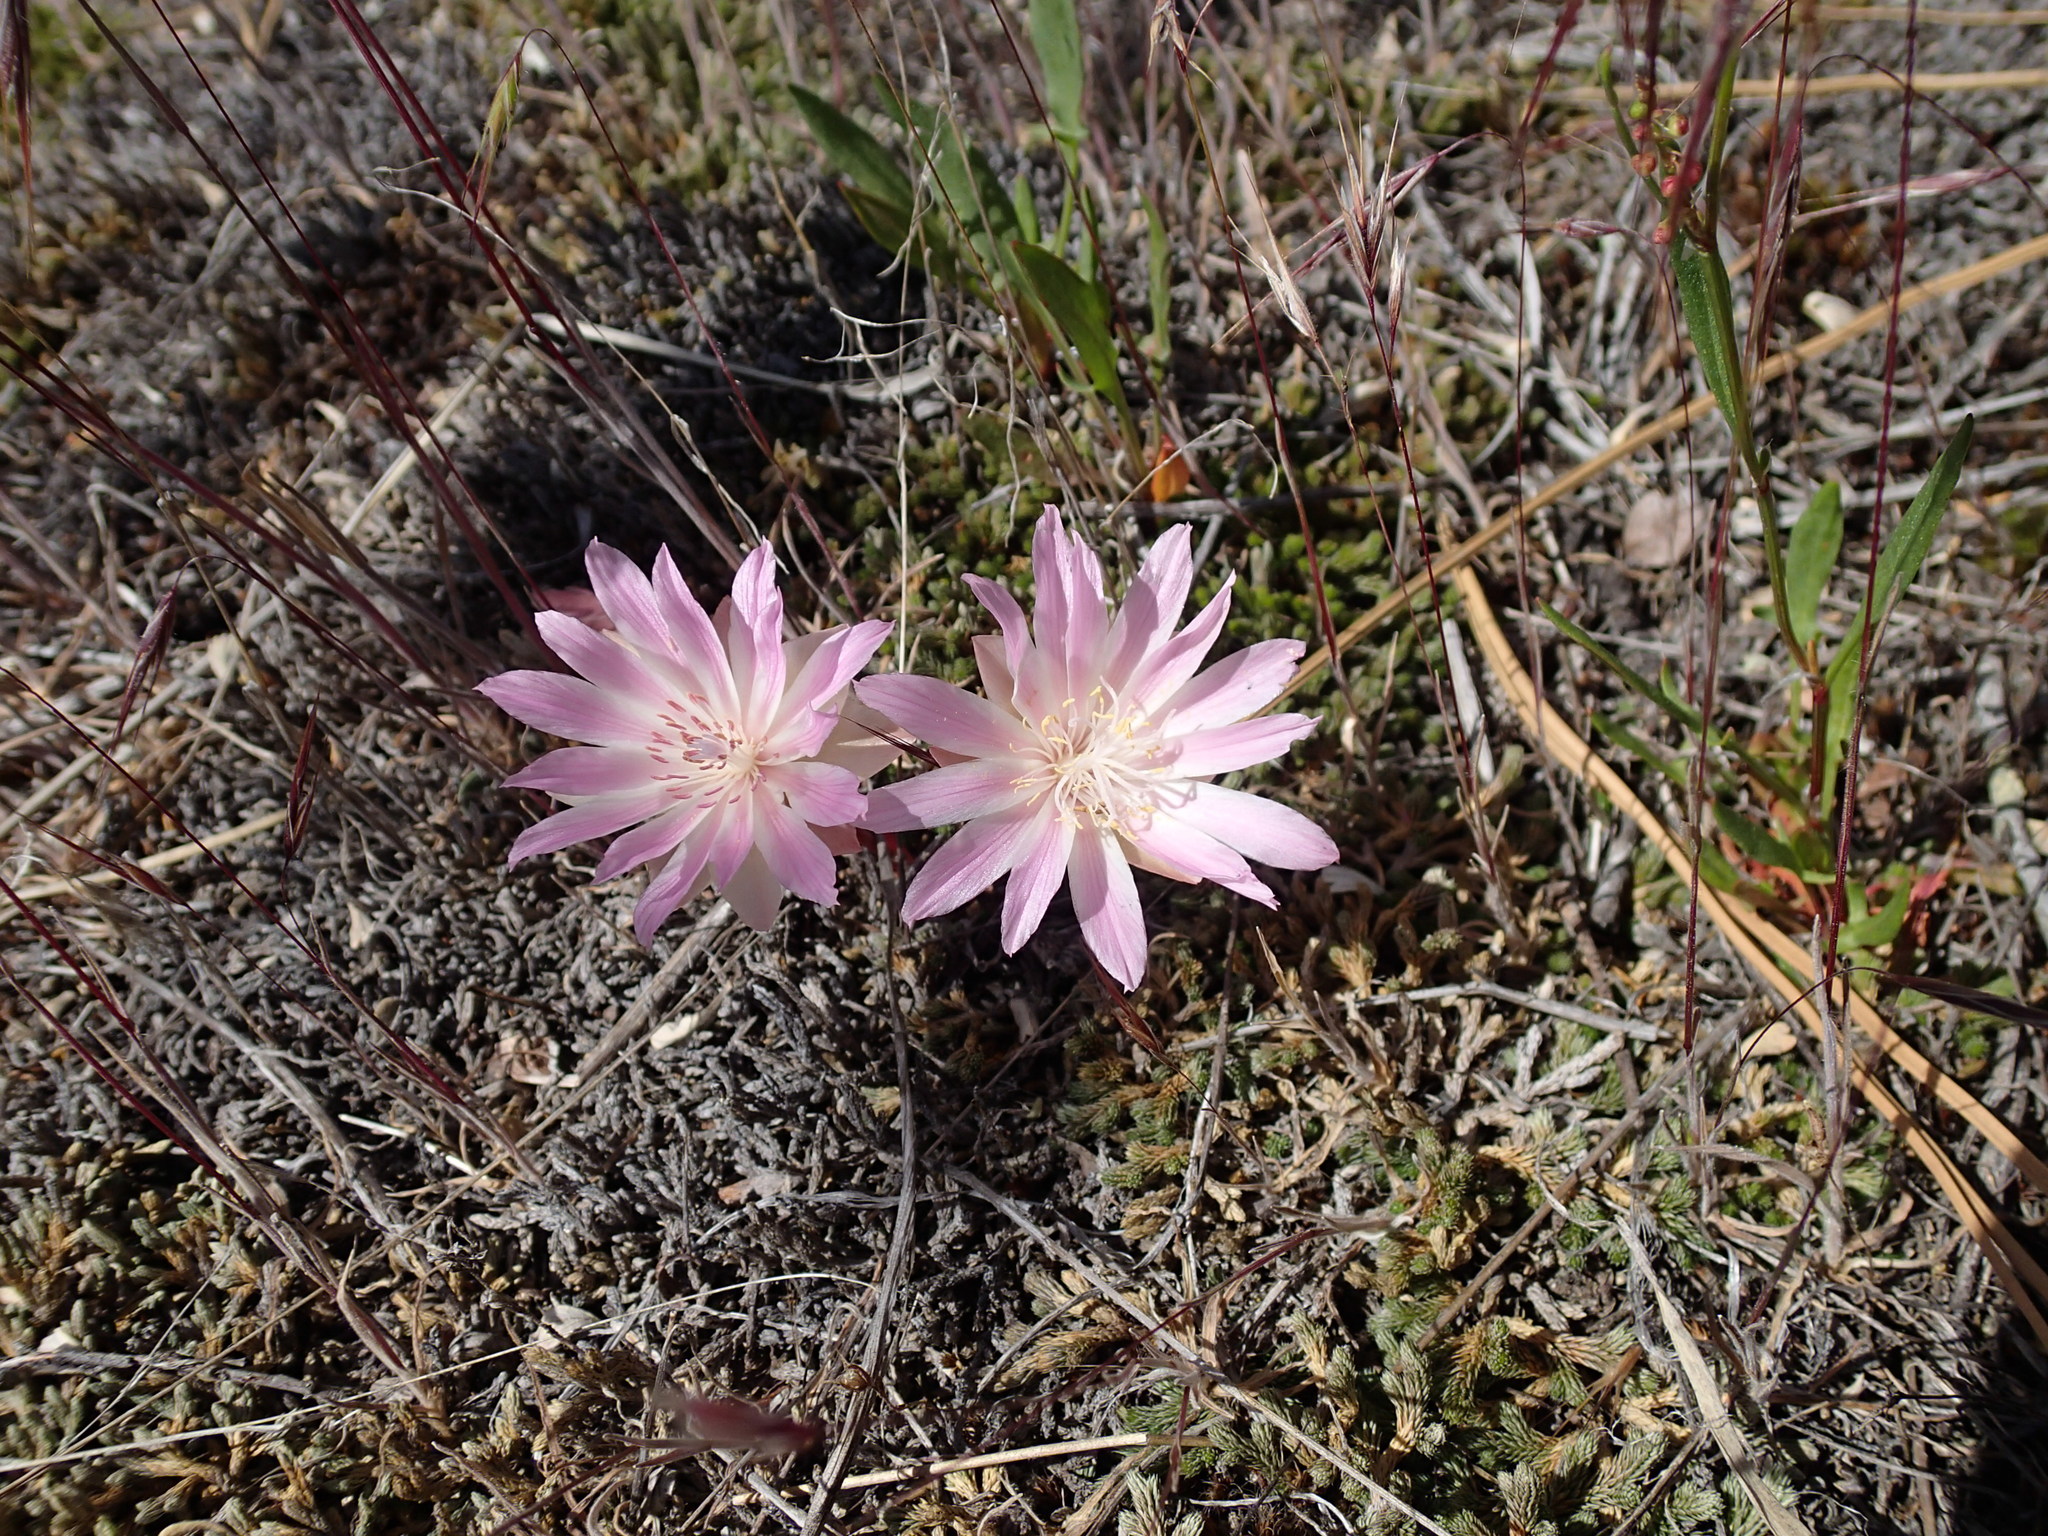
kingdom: Plantae
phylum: Tracheophyta
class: Magnoliopsida
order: Caryophyllales
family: Montiaceae
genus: Lewisia
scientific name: Lewisia rediviva
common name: Bitter-root
